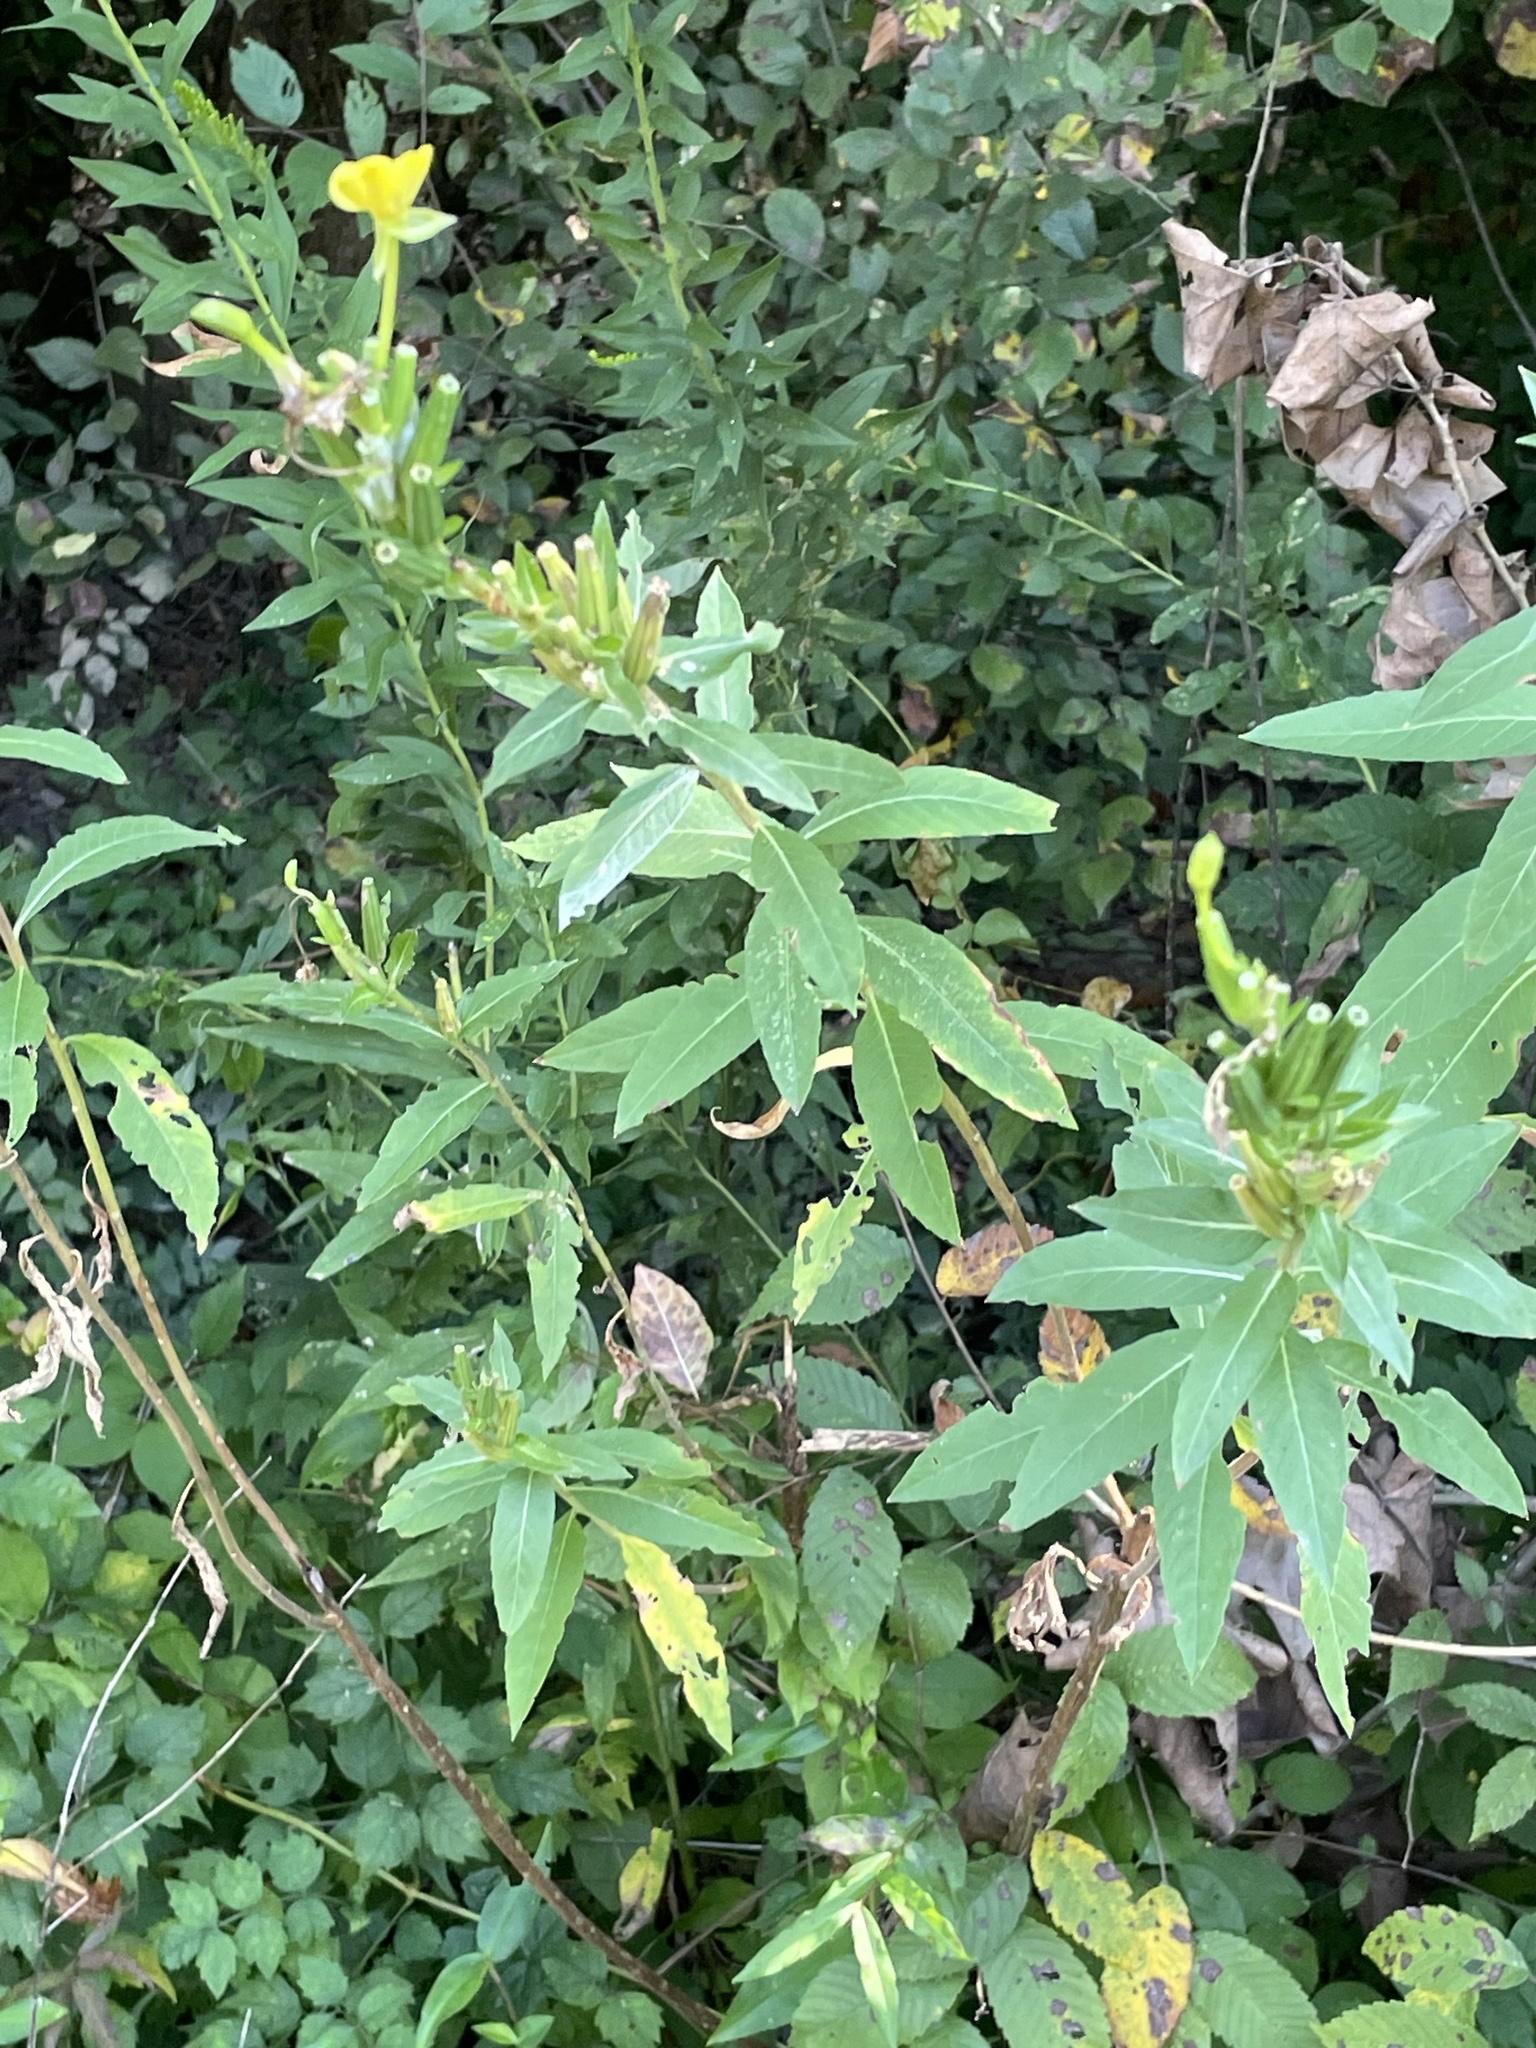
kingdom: Plantae
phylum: Tracheophyta
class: Magnoliopsida
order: Myrtales
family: Onagraceae
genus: Oenothera
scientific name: Oenothera biennis
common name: Common evening-primrose
